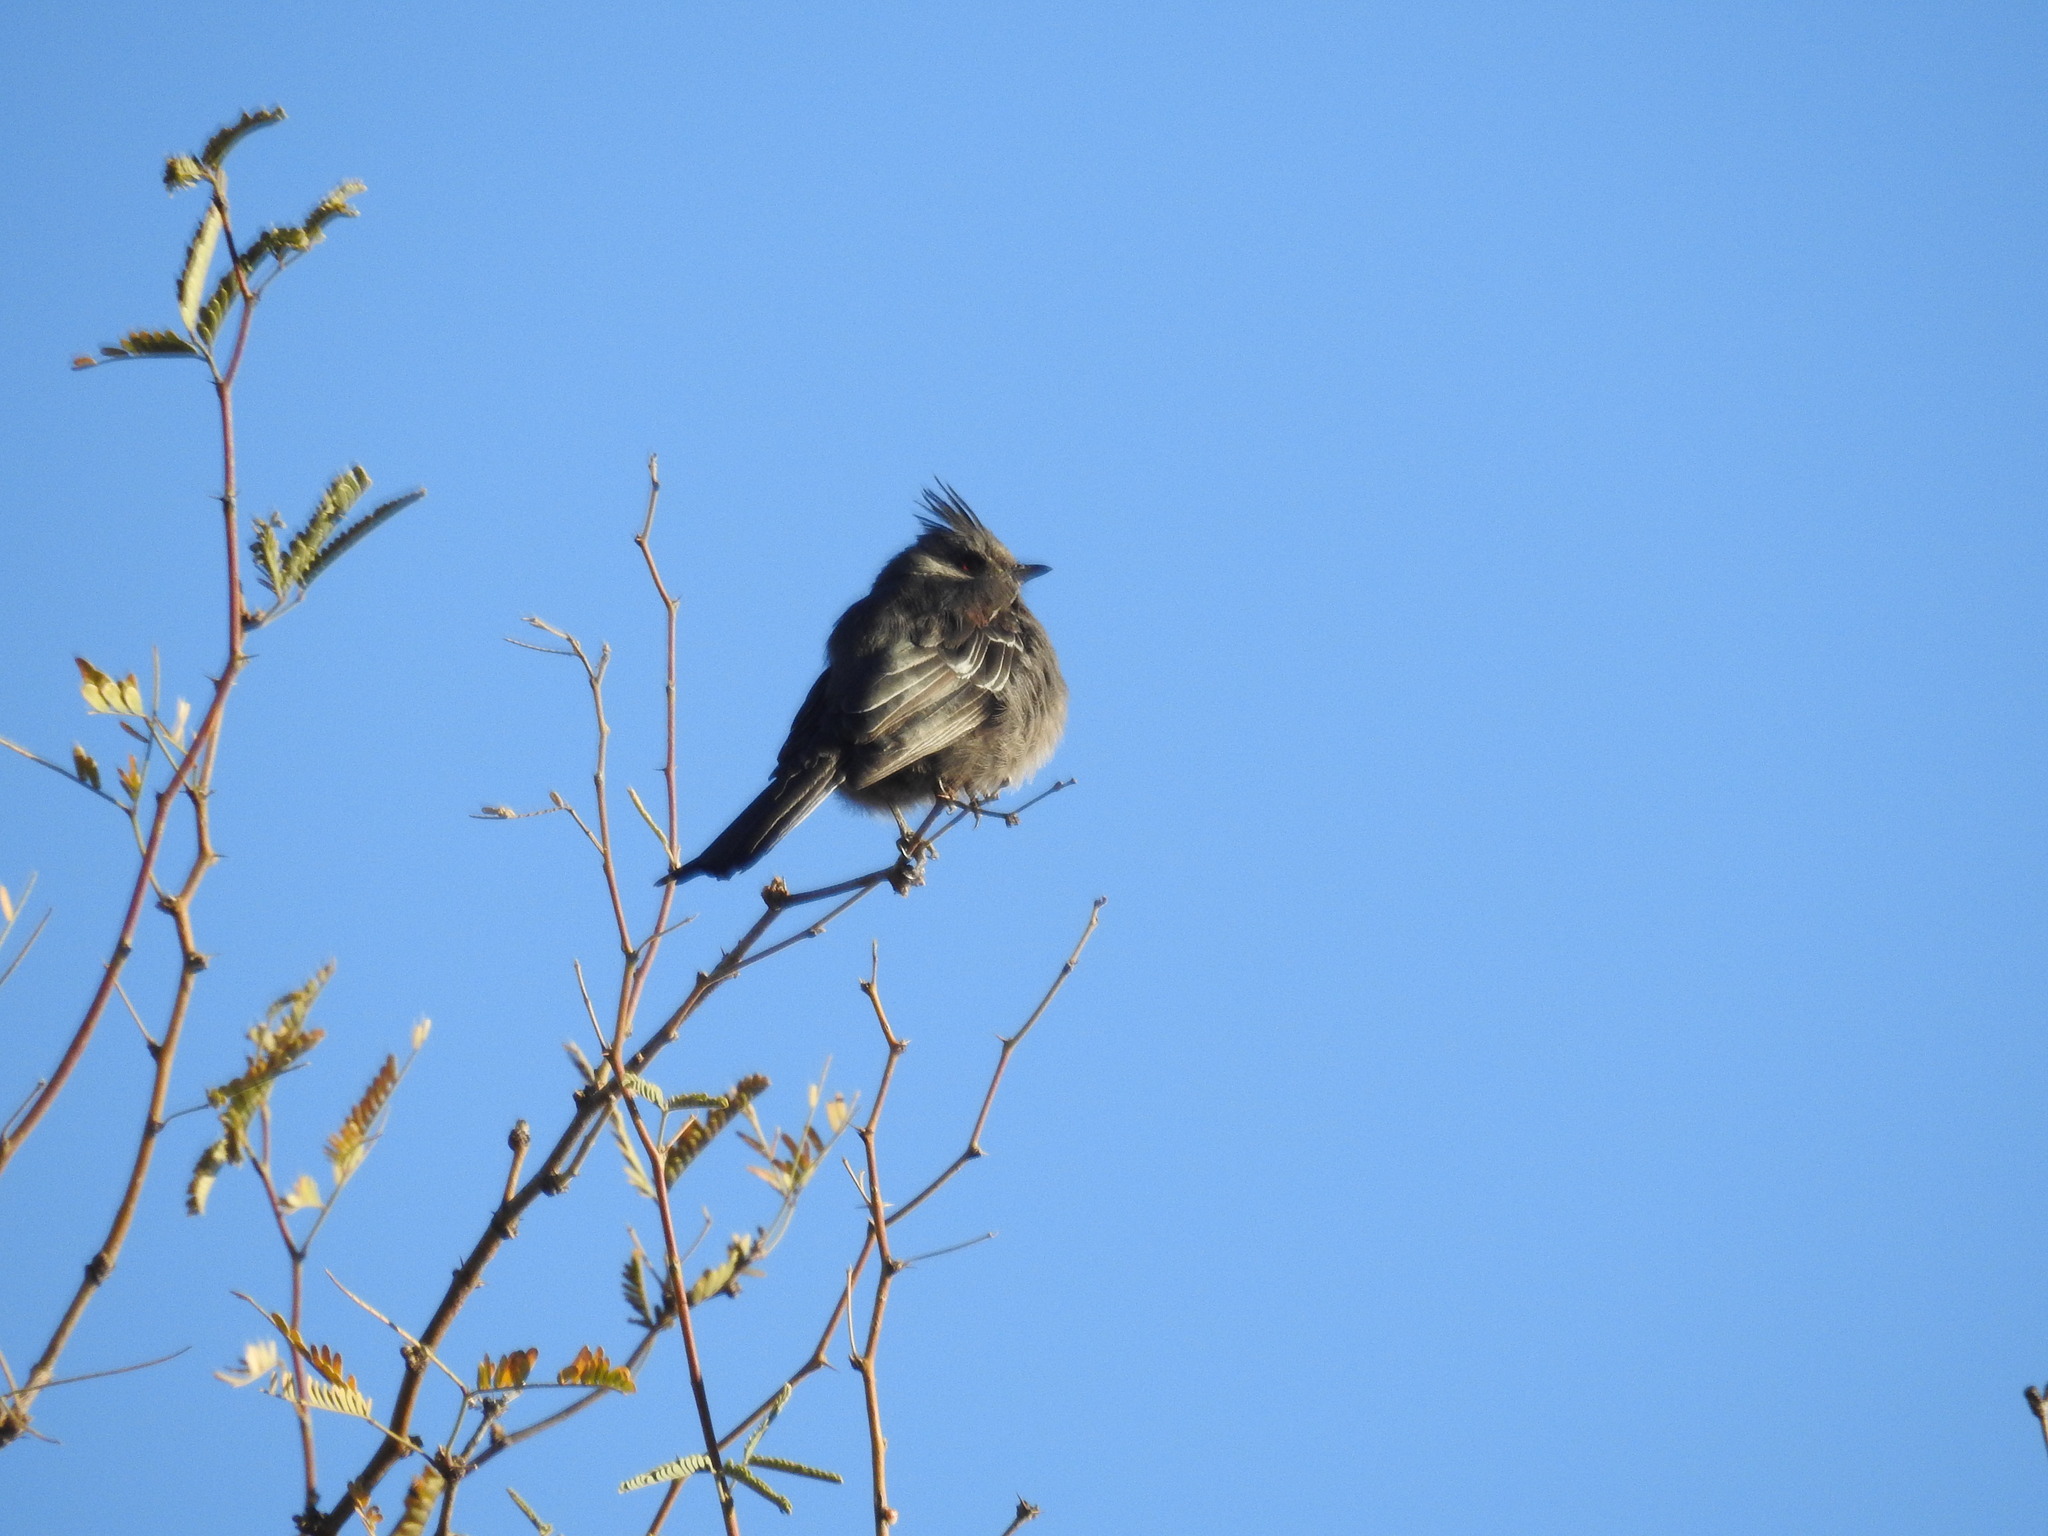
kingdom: Animalia
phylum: Chordata
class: Aves
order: Passeriformes
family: Ptilogonatidae
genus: Phainopepla
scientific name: Phainopepla nitens
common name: Phainopepla
